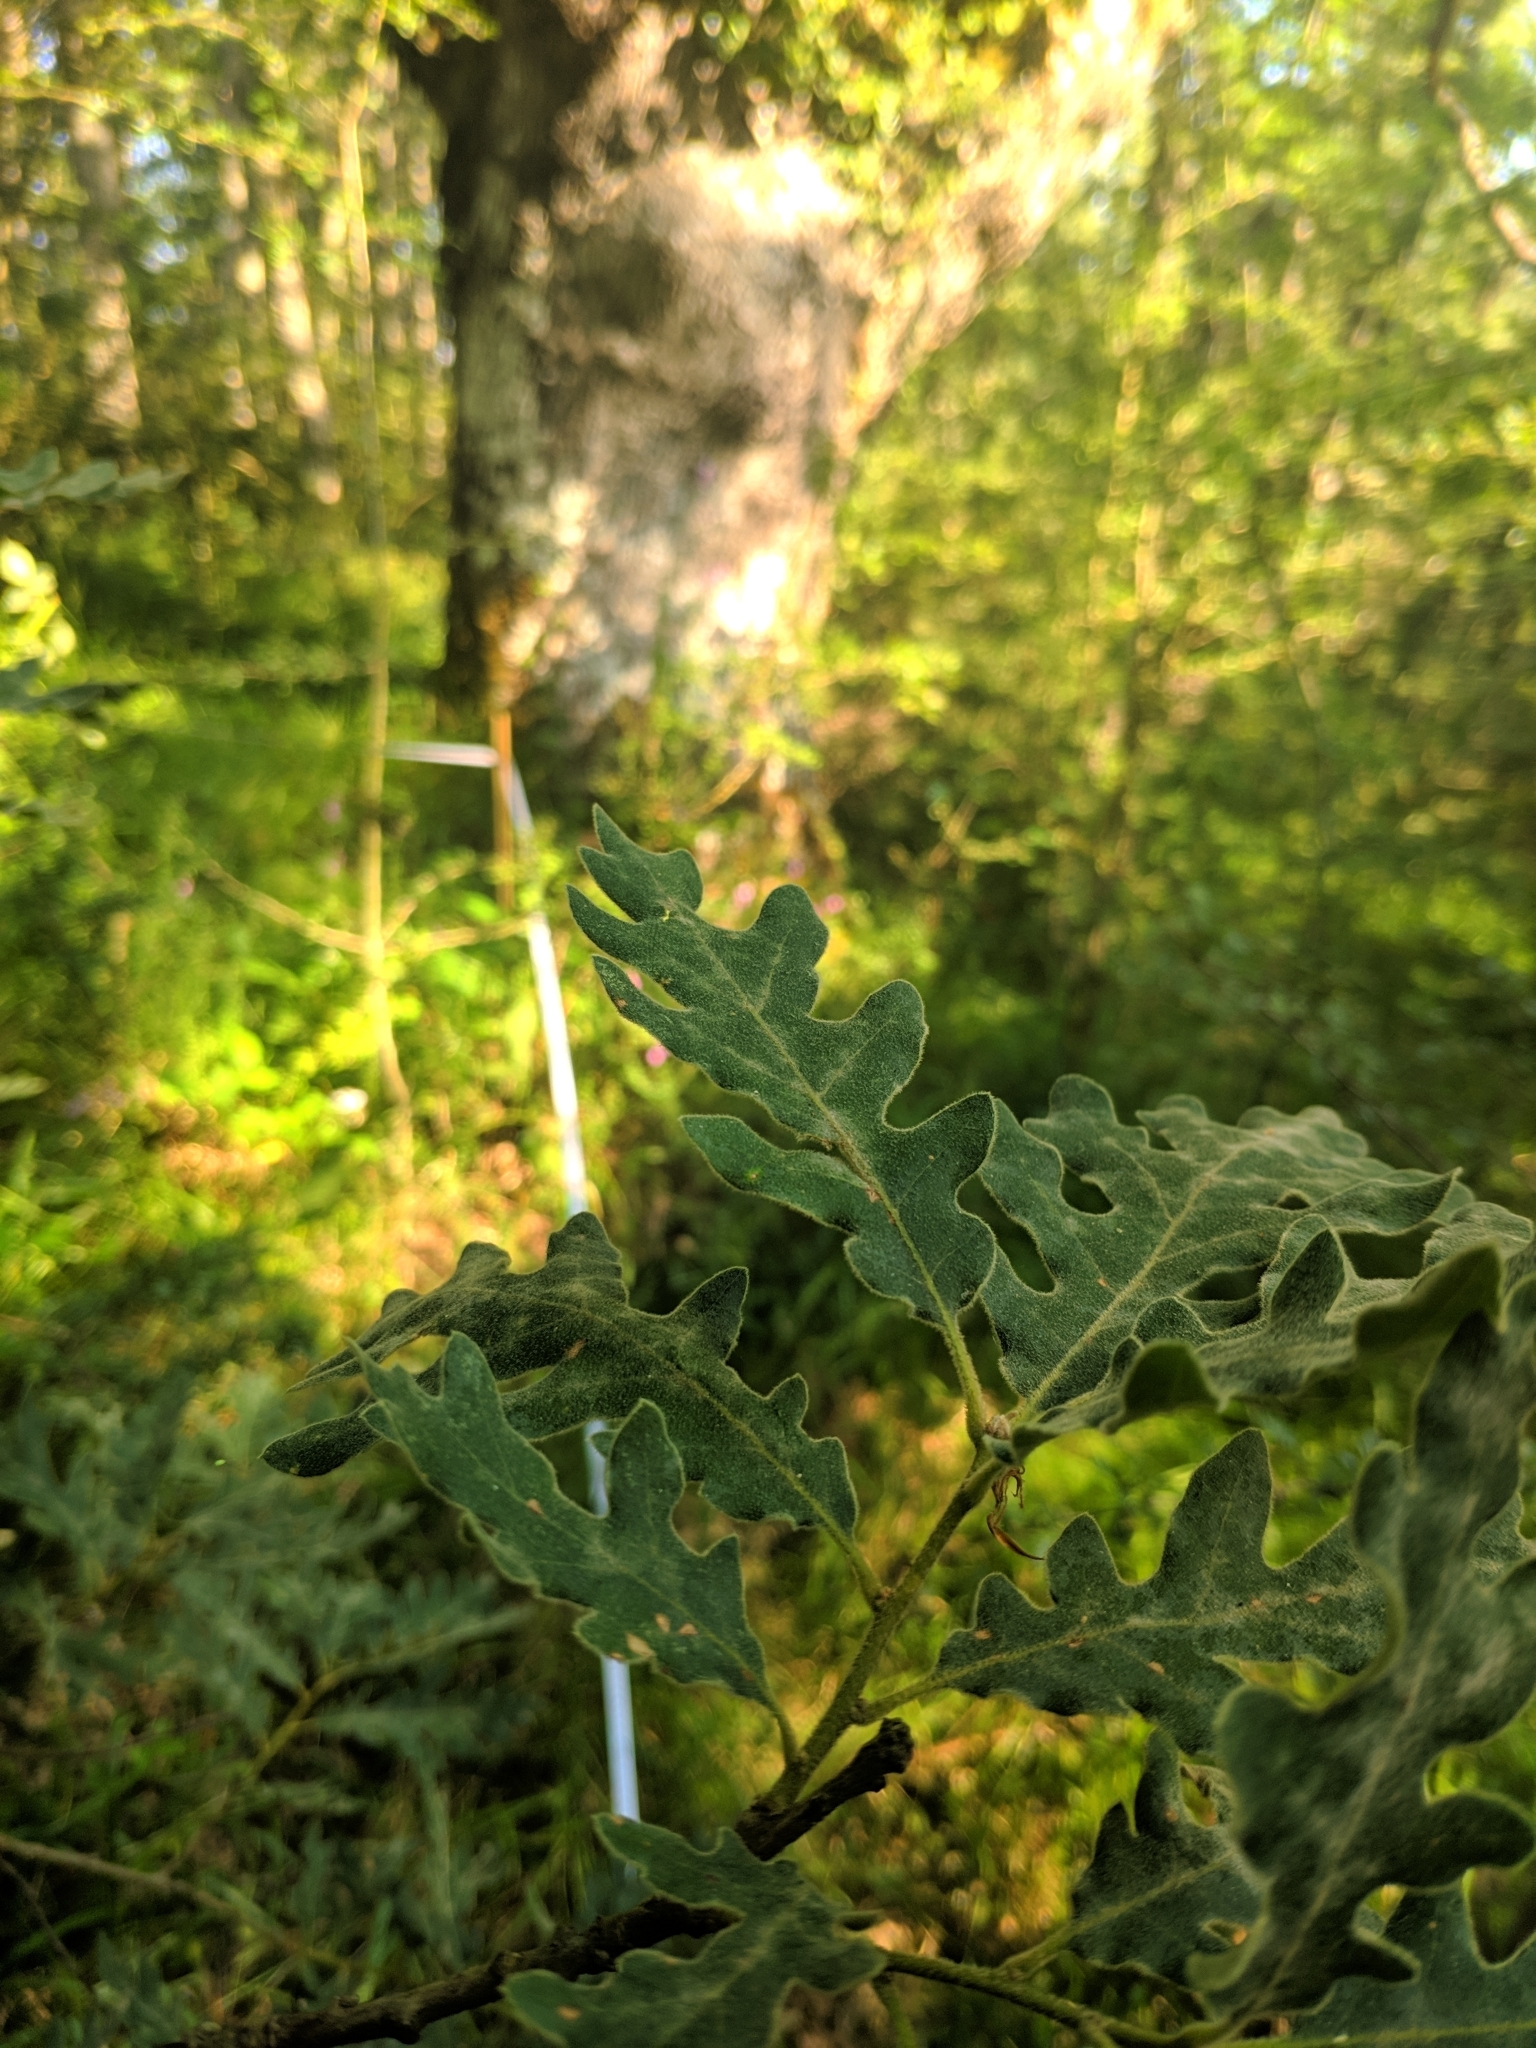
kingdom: Plantae
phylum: Tracheophyta
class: Magnoliopsida
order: Fagales
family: Fagaceae
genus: Quercus
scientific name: Quercus pyrenaica
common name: Pyrenean oak
